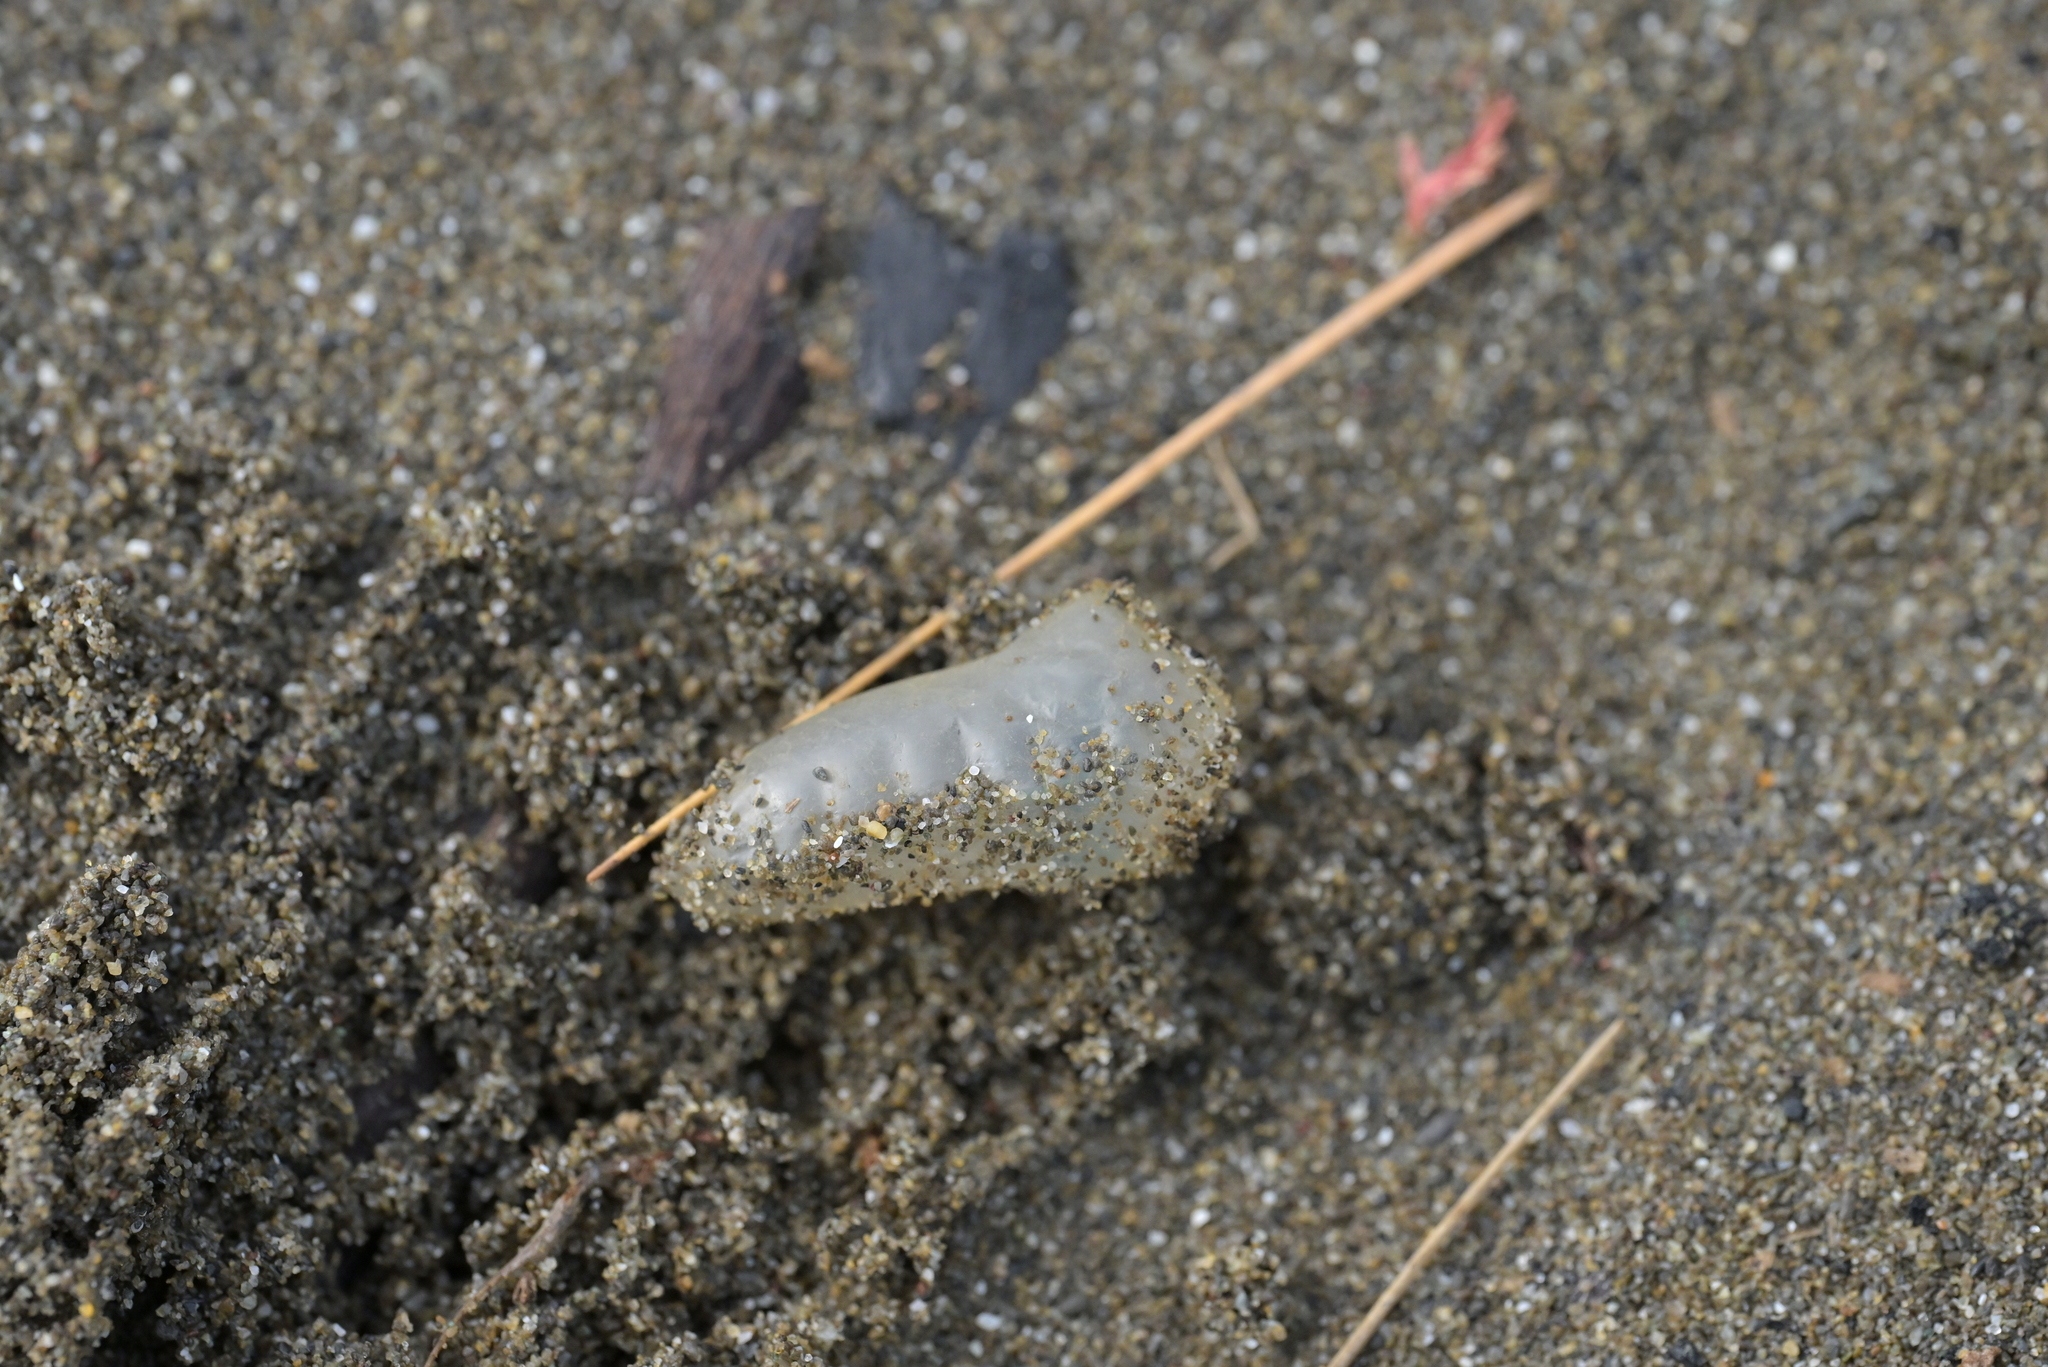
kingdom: Animalia
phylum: Cnidaria
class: Hydrozoa
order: Siphonophorae
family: Physaliidae
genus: Physalia
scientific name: Physalia physalis
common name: Portuguese man-of-war
